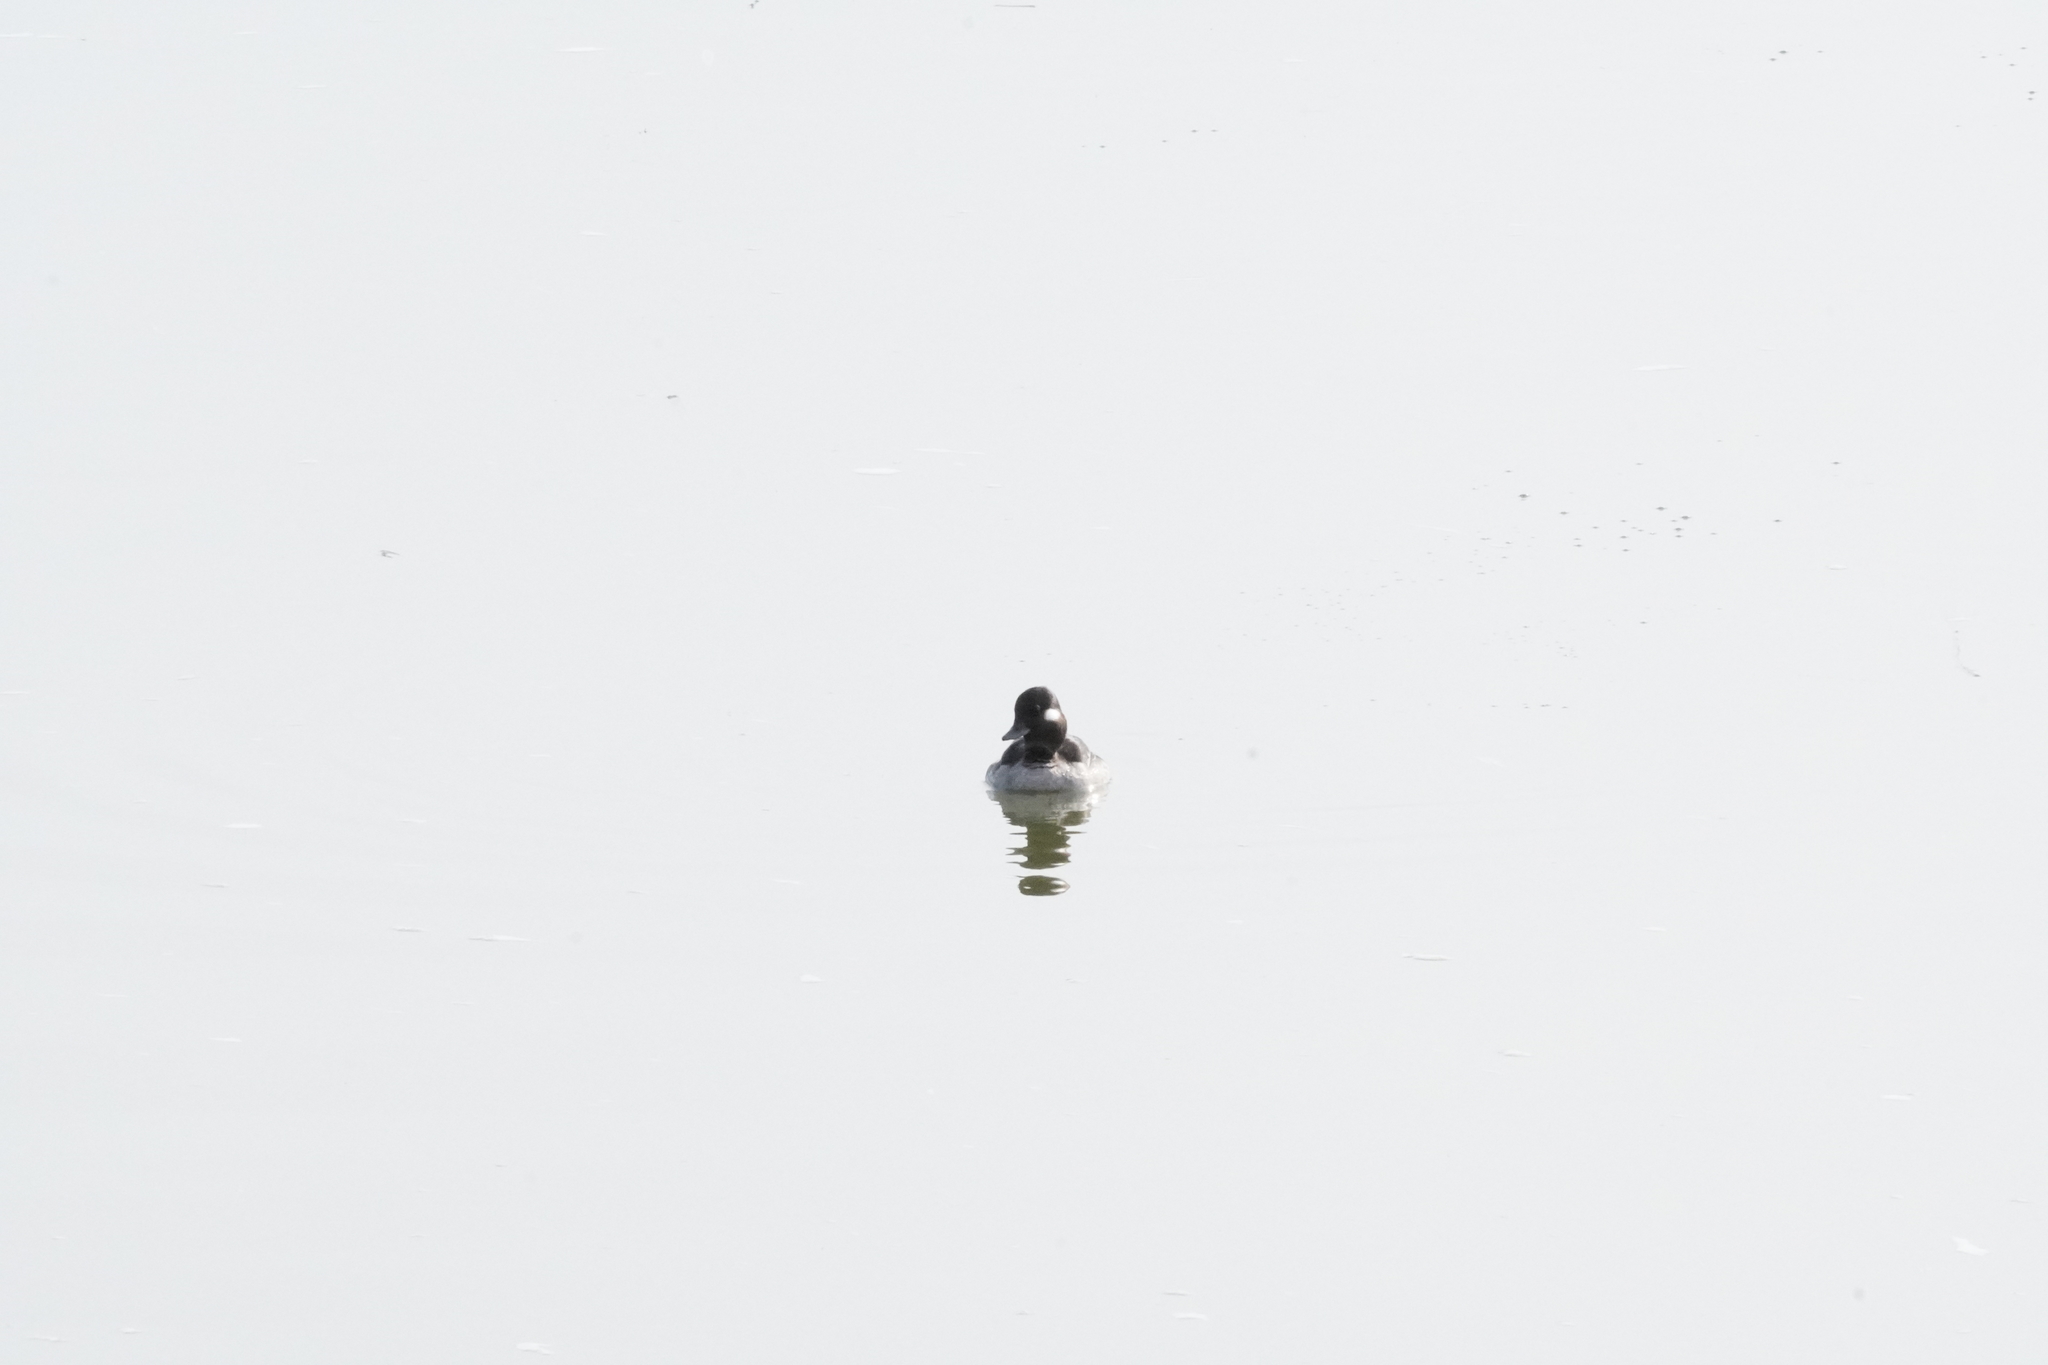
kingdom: Animalia
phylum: Chordata
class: Aves
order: Anseriformes
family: Anatidae
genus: Bucephala
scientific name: Bucephala albeola
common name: Bufflehead
